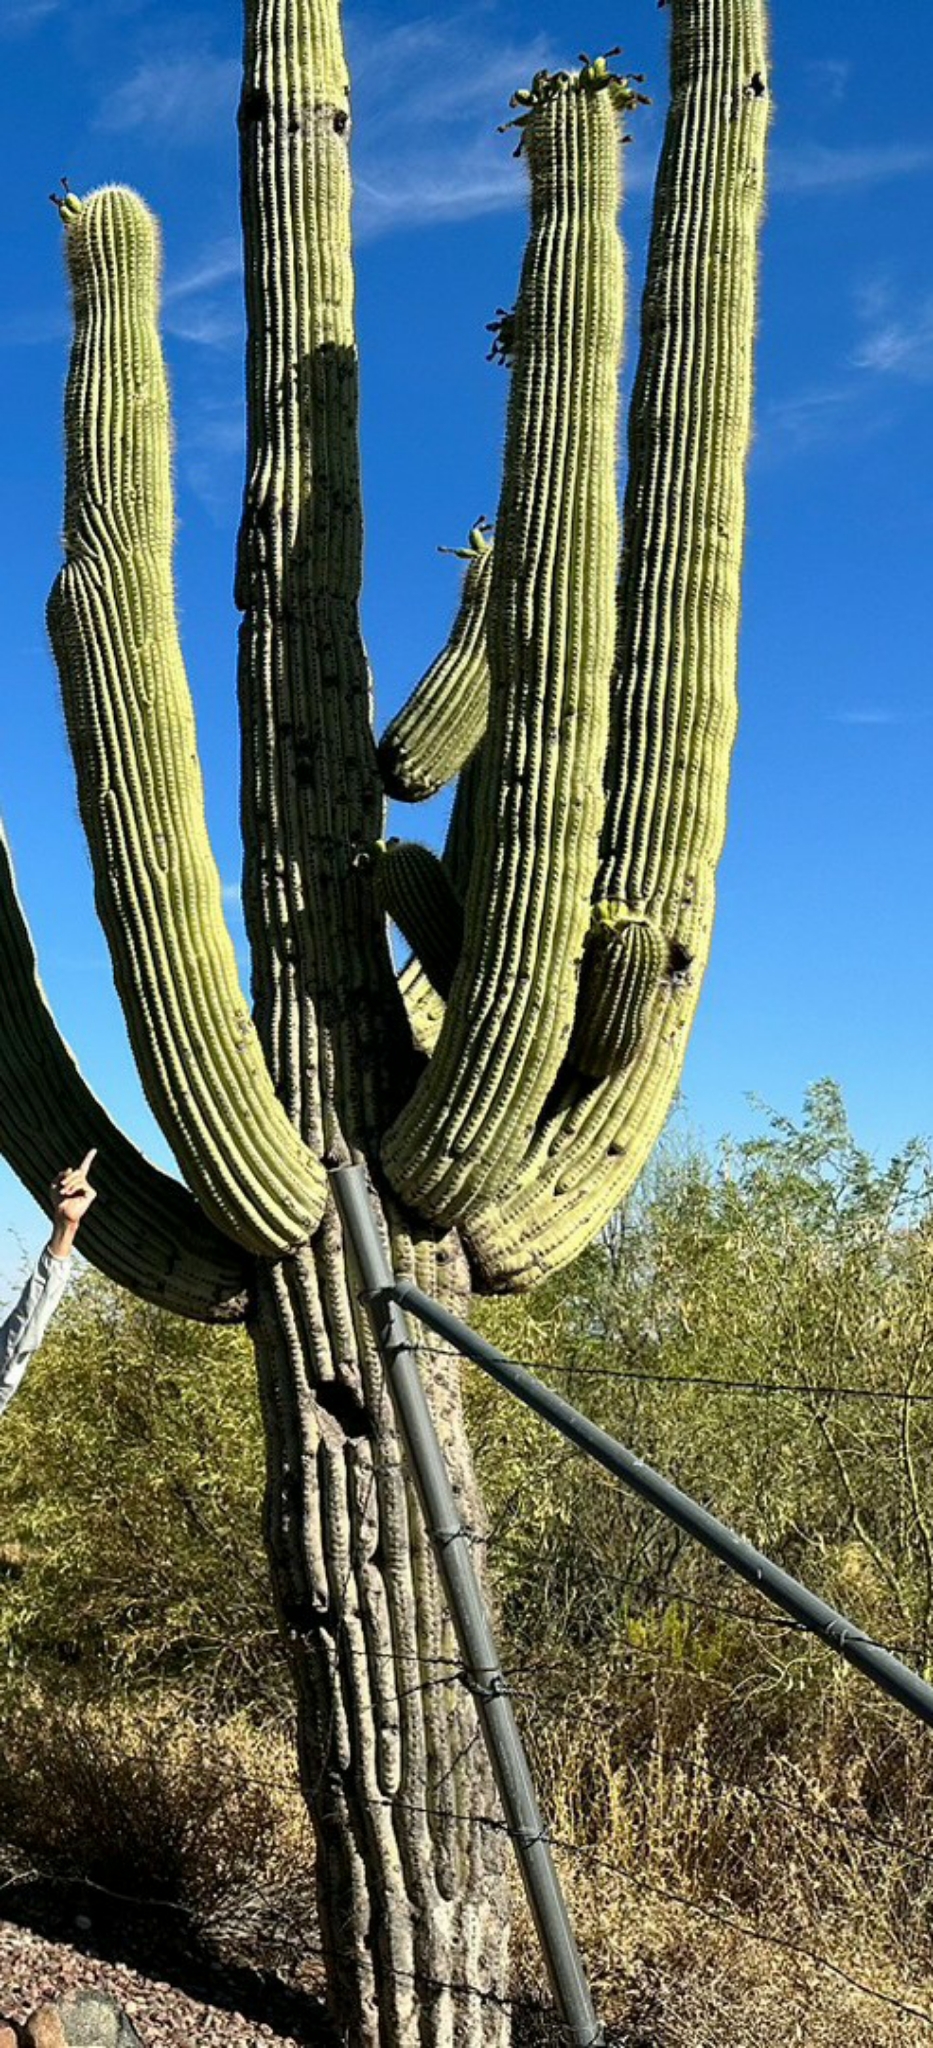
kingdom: Plantae
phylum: Tracheophyta
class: Magnoliopsida
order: Caryophyllales
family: Cactaceae
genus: Carnegiea
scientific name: Carnegiea gigantea
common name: Saguaro
